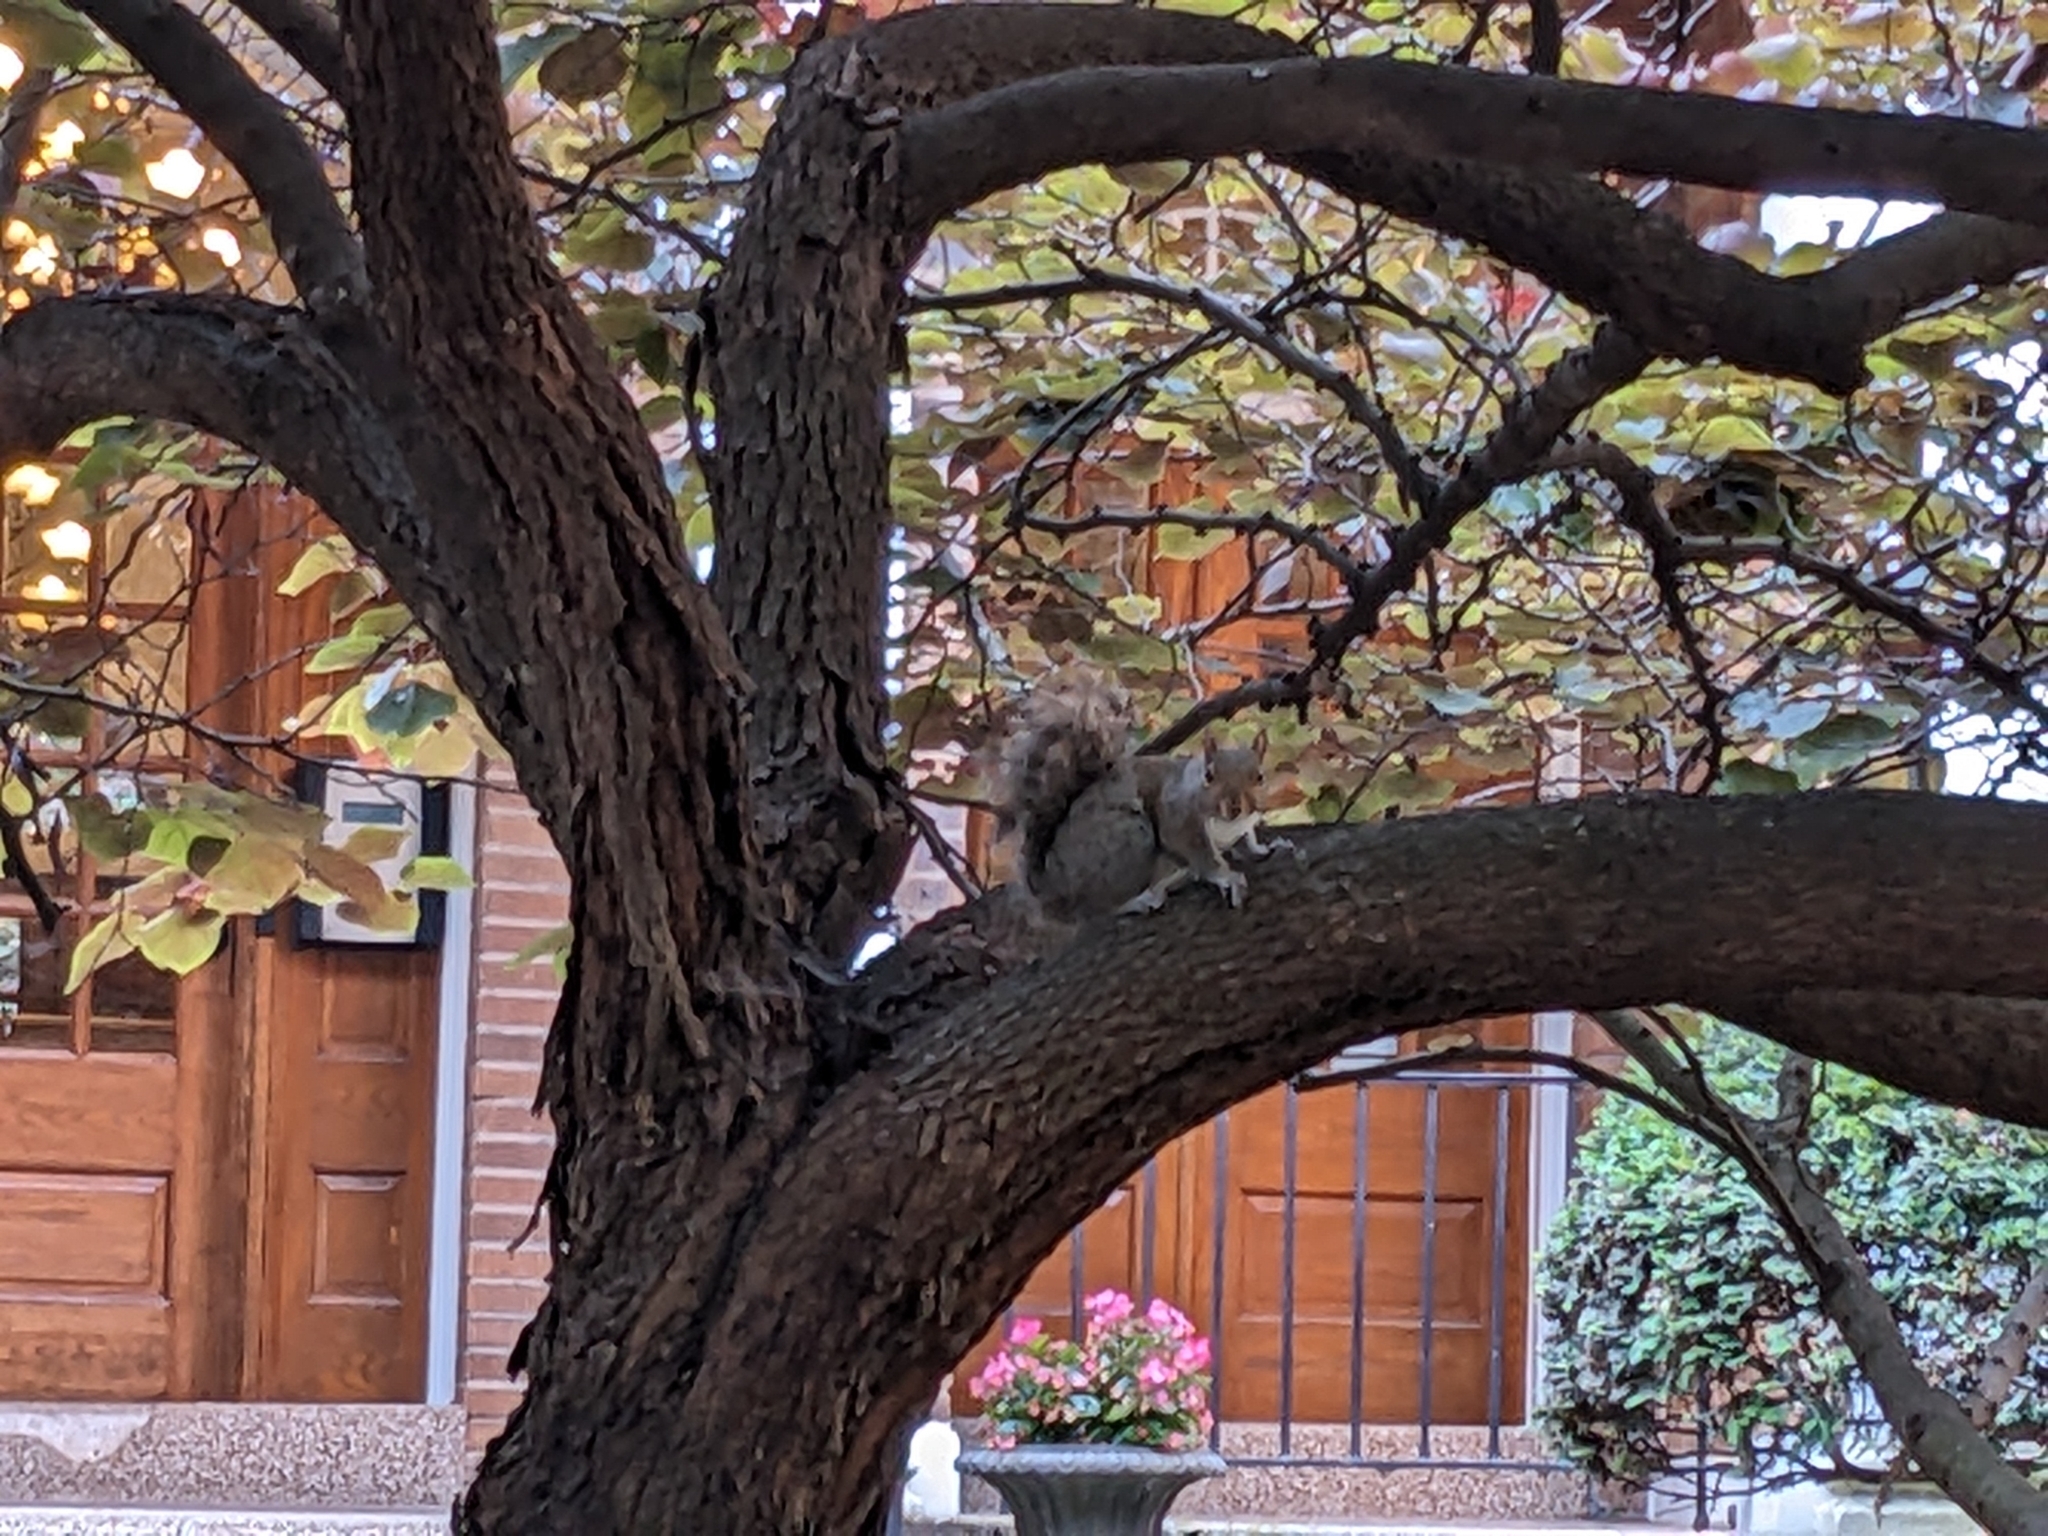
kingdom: Animalia
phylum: Chordata
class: Mammalia
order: Rodentia
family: Sciuridae
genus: Sciurus
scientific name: Sciurus carolinensis
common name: Eastern gray squirrel
